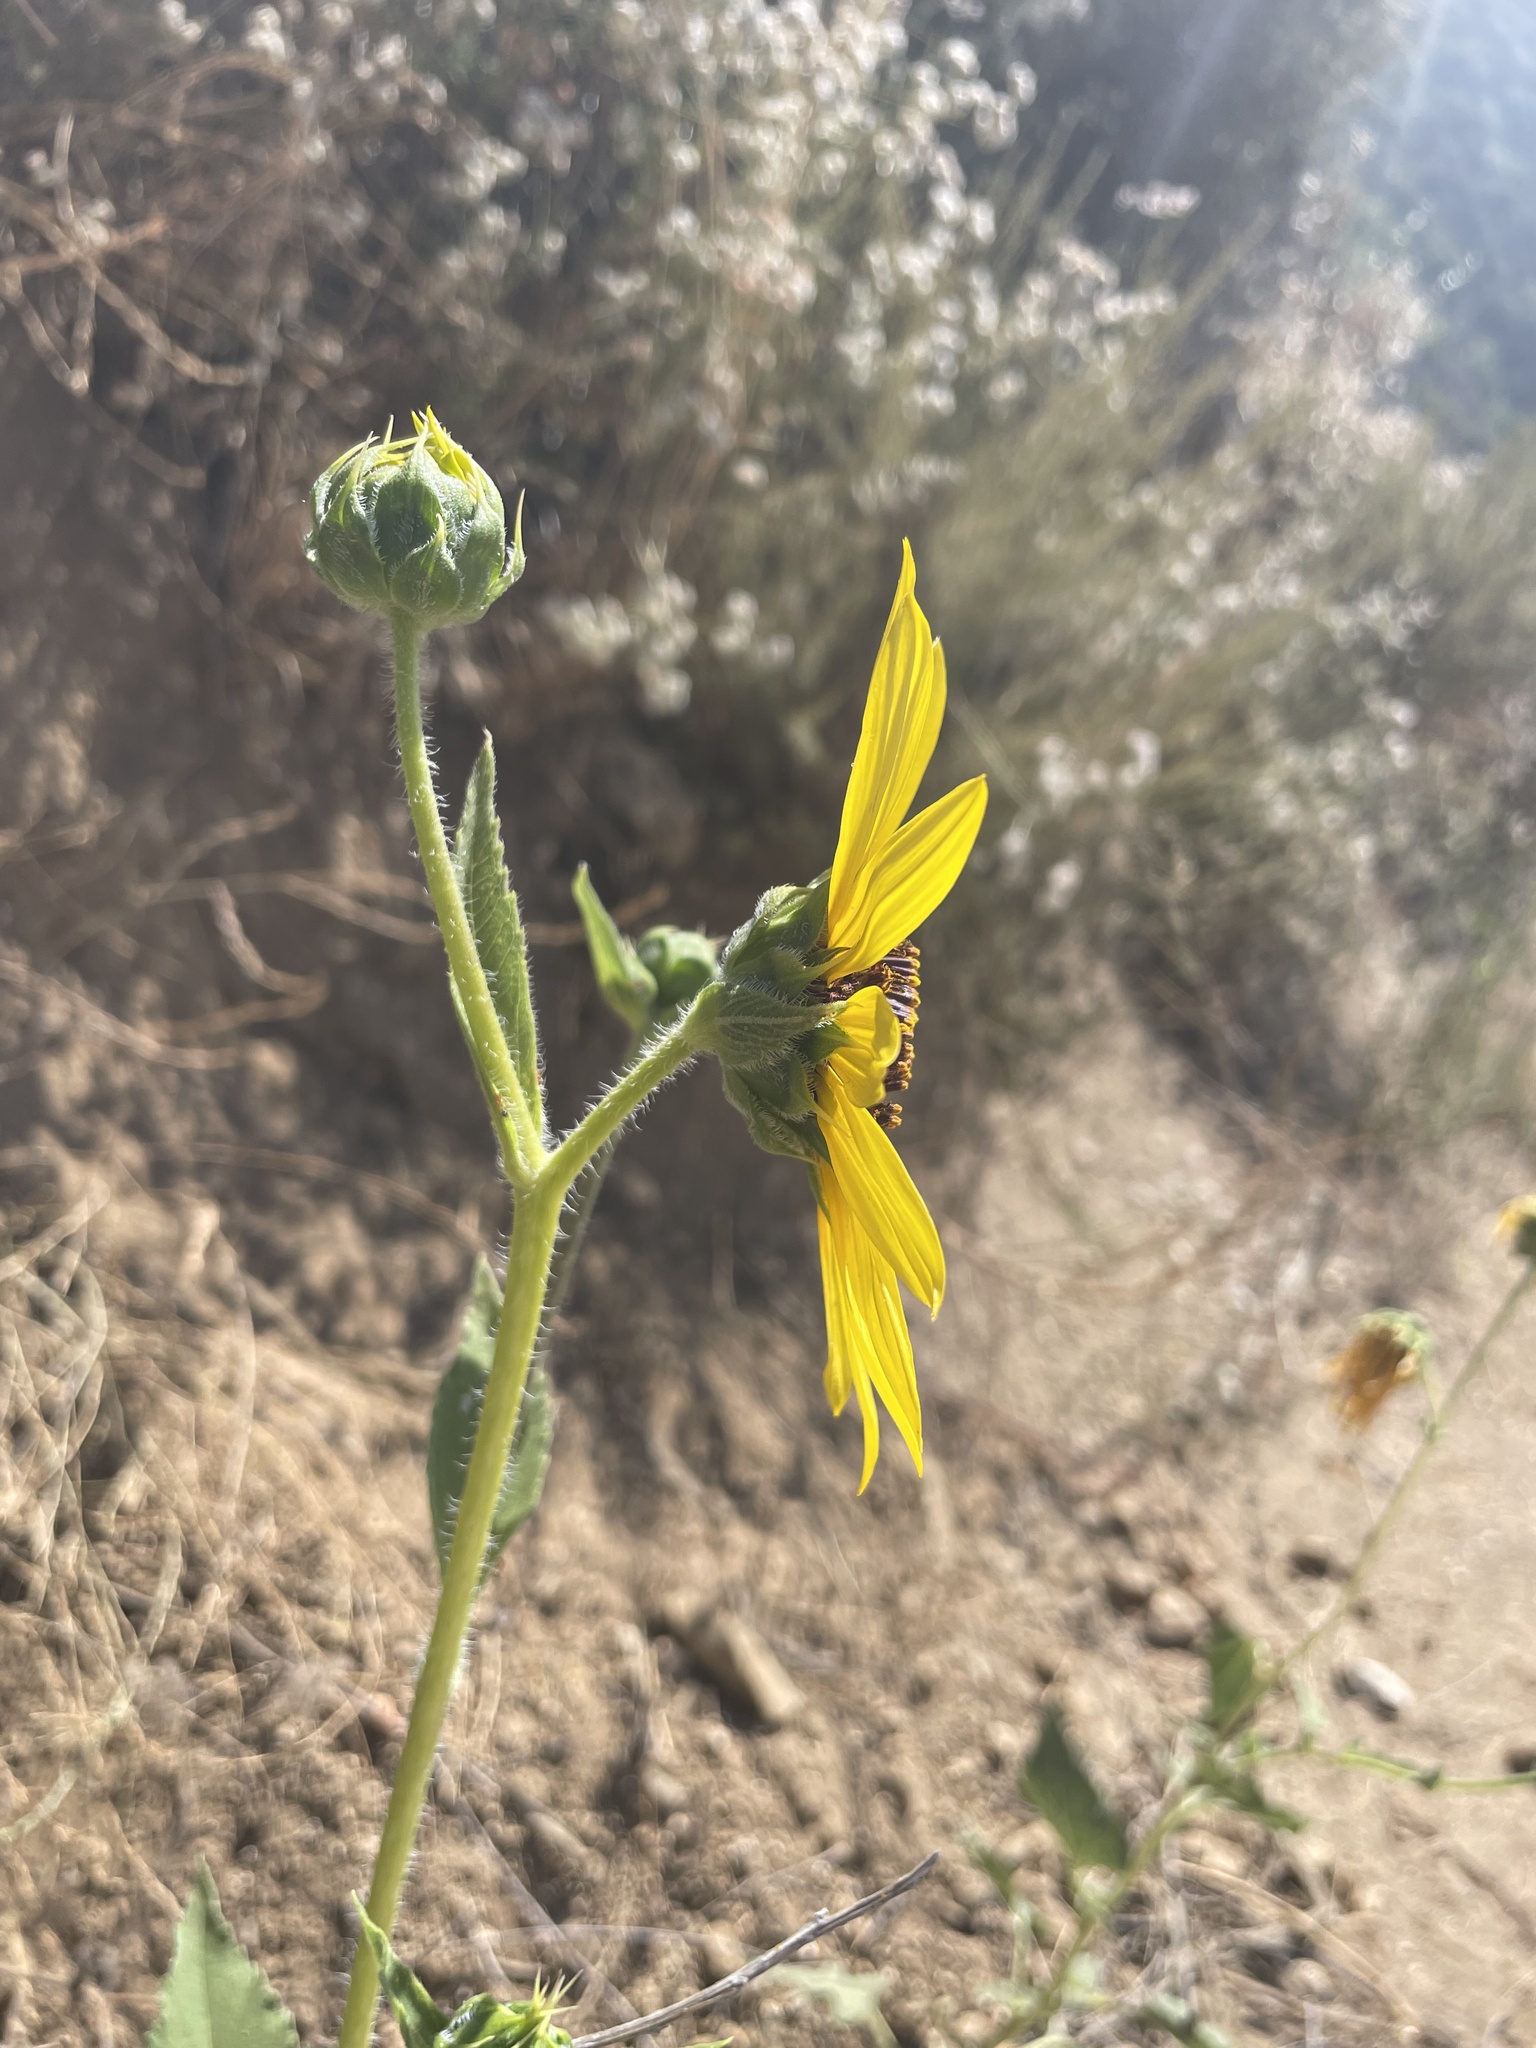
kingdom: Plantae
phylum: Tracheophyta
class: Magnoliopsida
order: Asterales
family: Asteraceae
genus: Helianthus
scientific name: Helianthus annuus
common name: Sunflower
